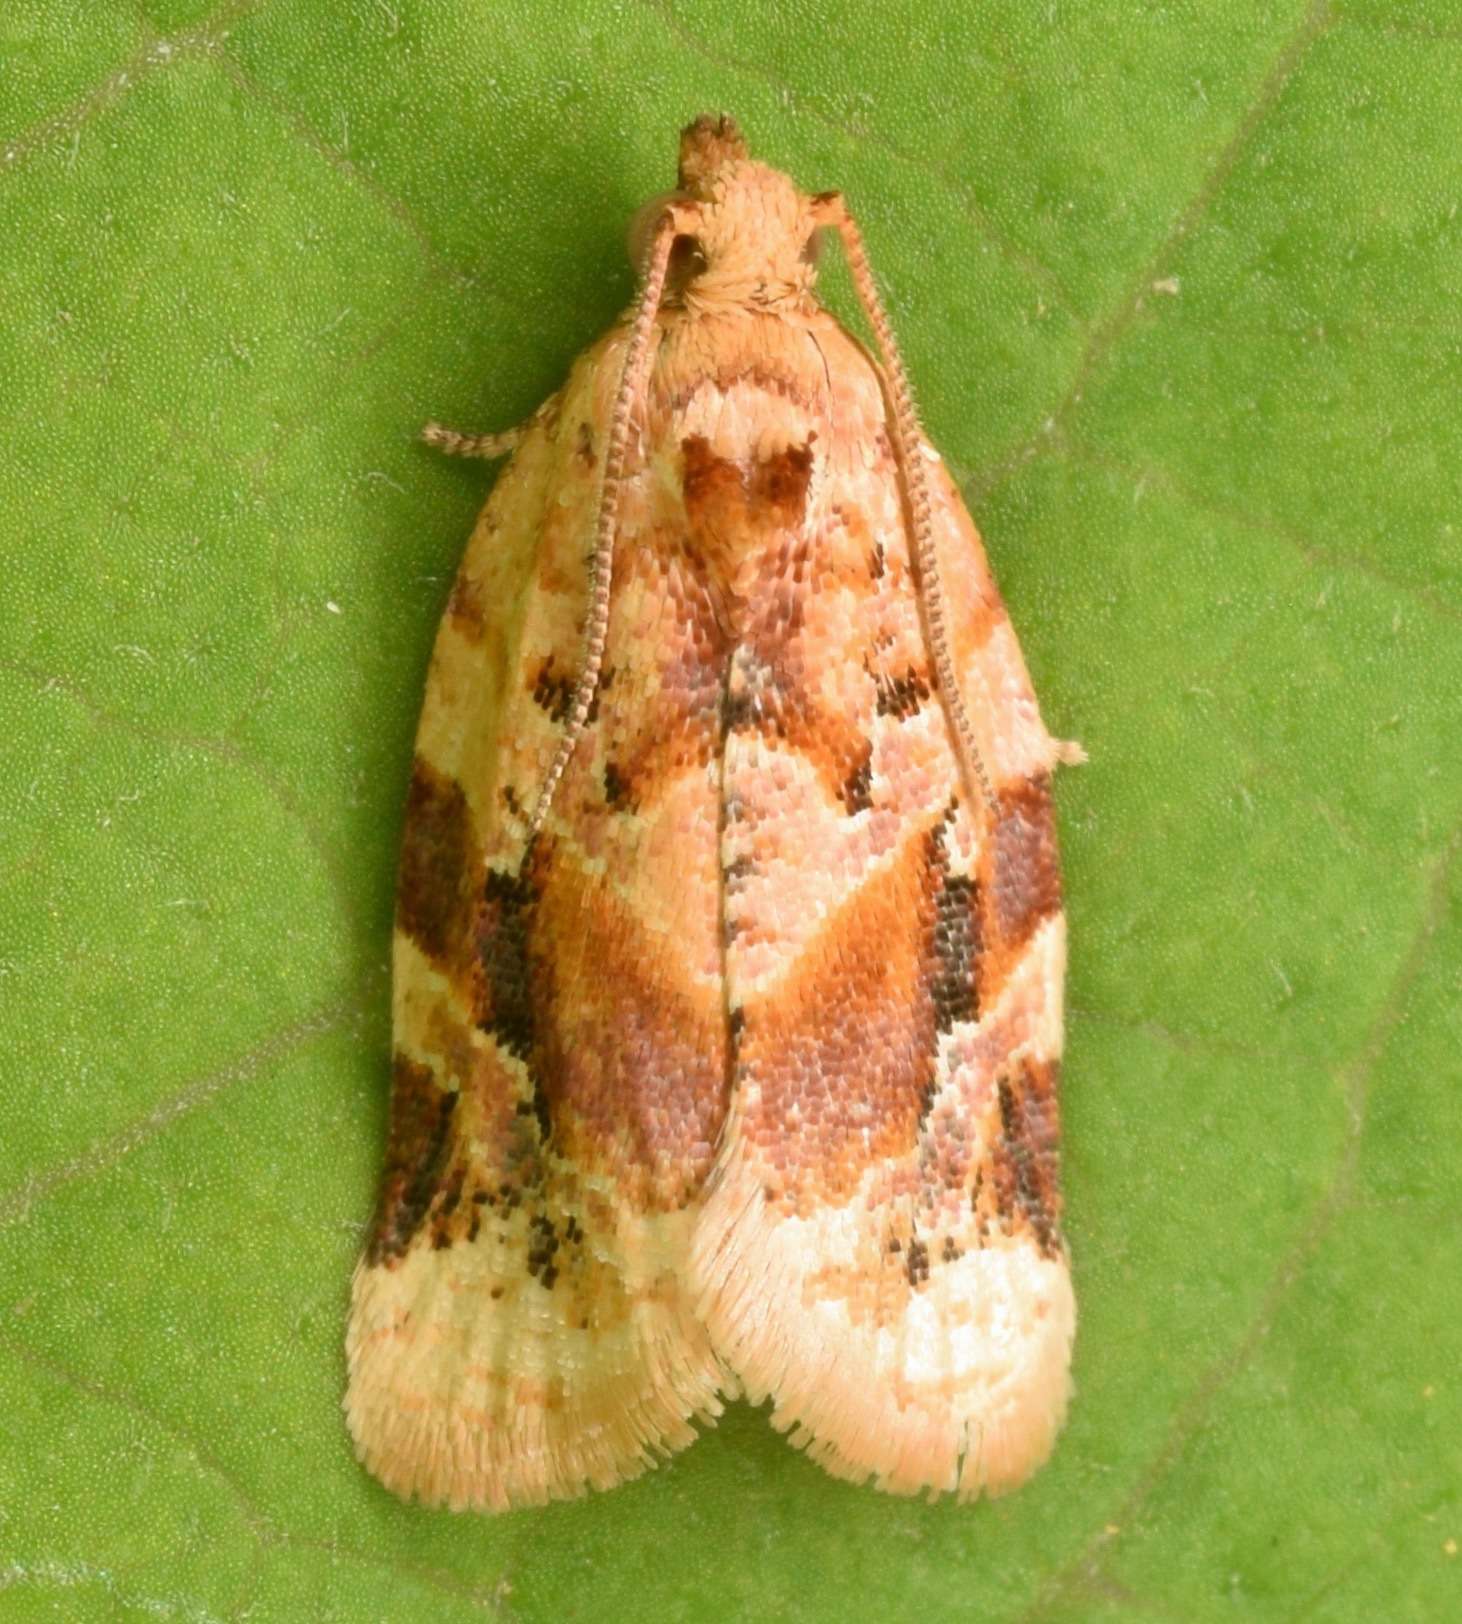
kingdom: Animalia
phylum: Arthropoda
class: Insecta
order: Lepidoptera
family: Tortricidae
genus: Argyrotaenia
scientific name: Argyrotaenia velutinana
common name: Red-banded leafroller moth
